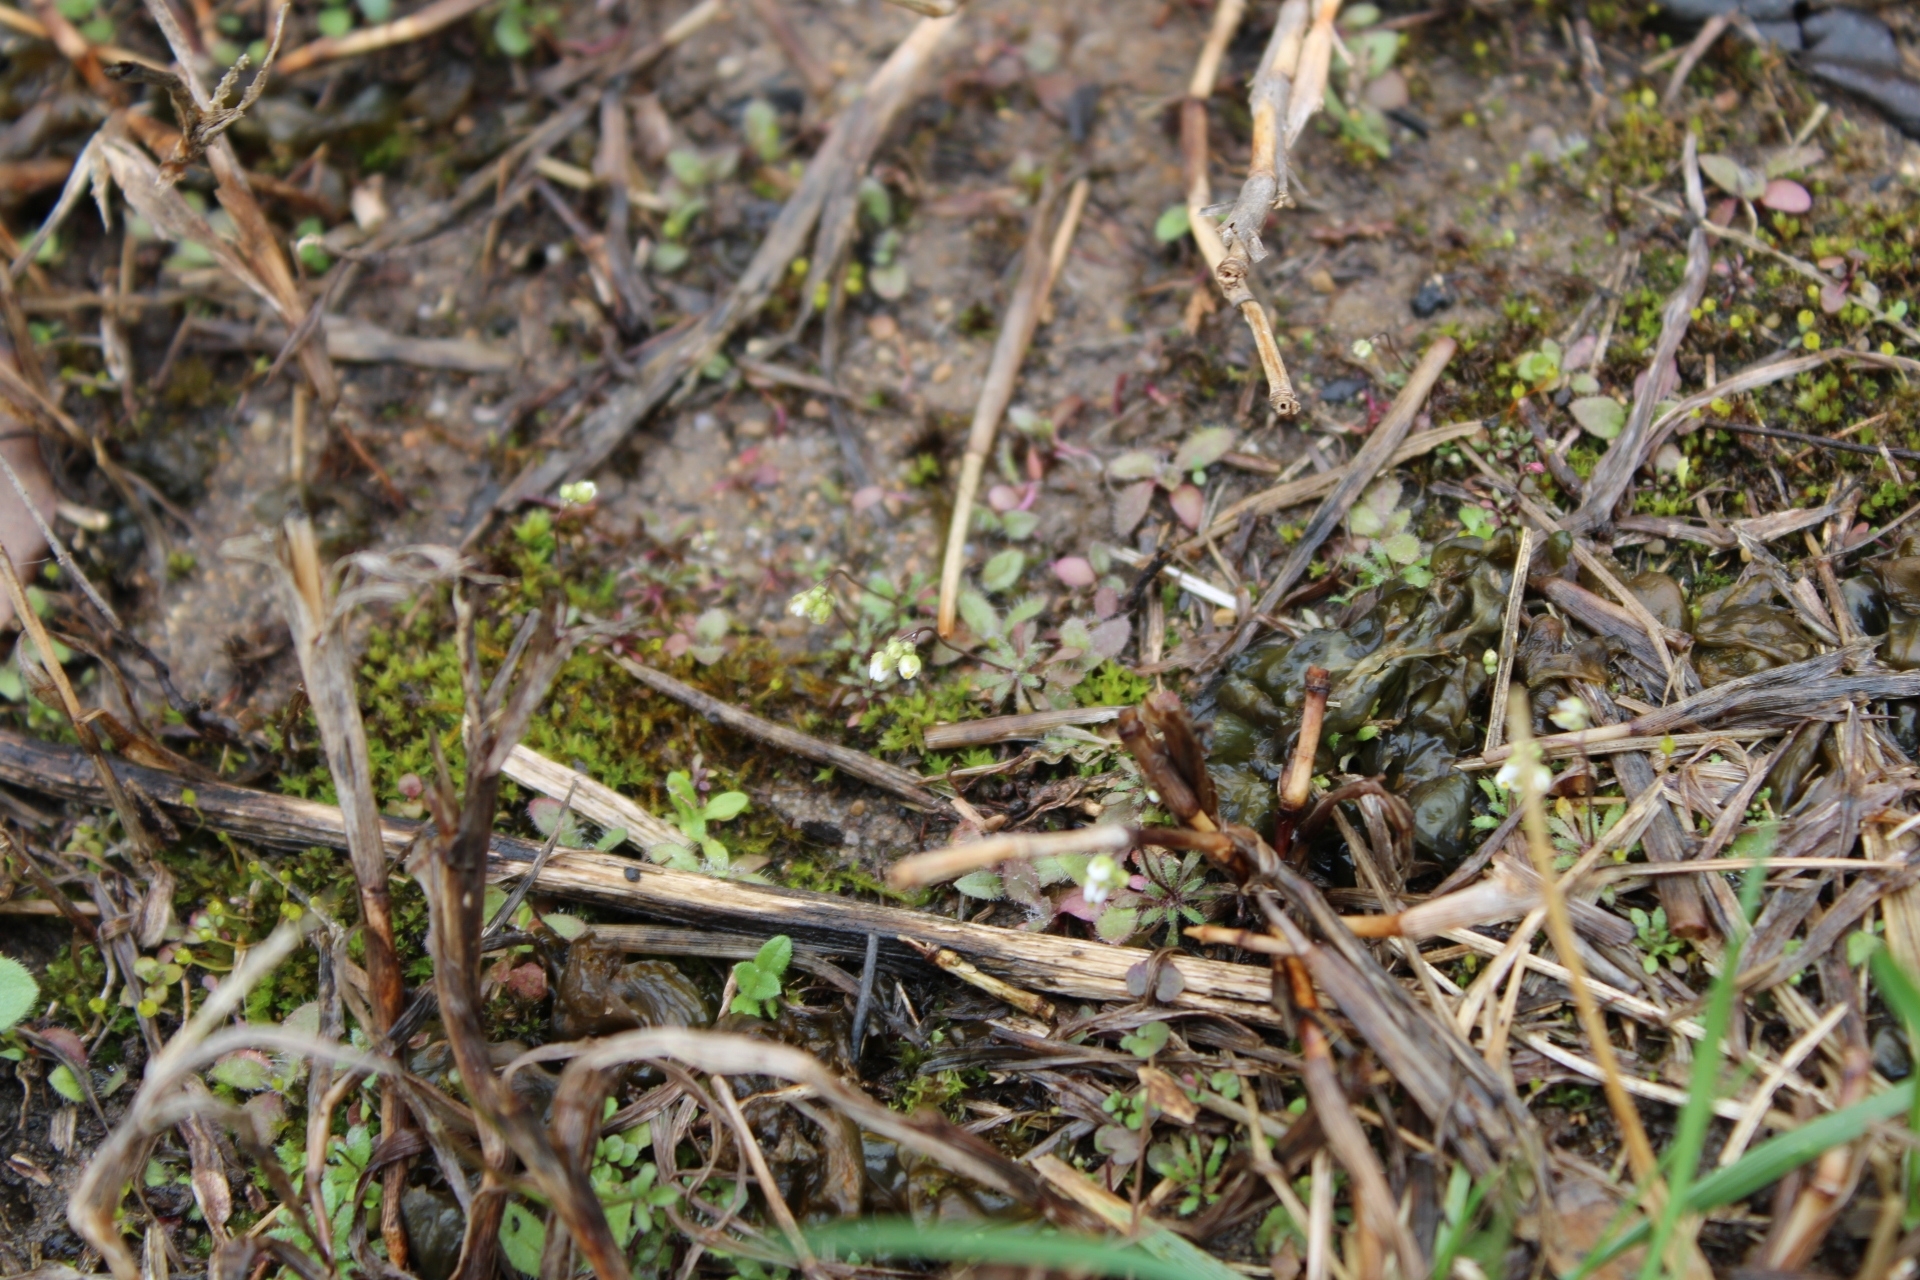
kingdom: Plantae
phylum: Tracheophyta
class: Magnoliopsida
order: Brassicales
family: Brassicaceae
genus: Draba
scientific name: Draba verna
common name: Spring draba
